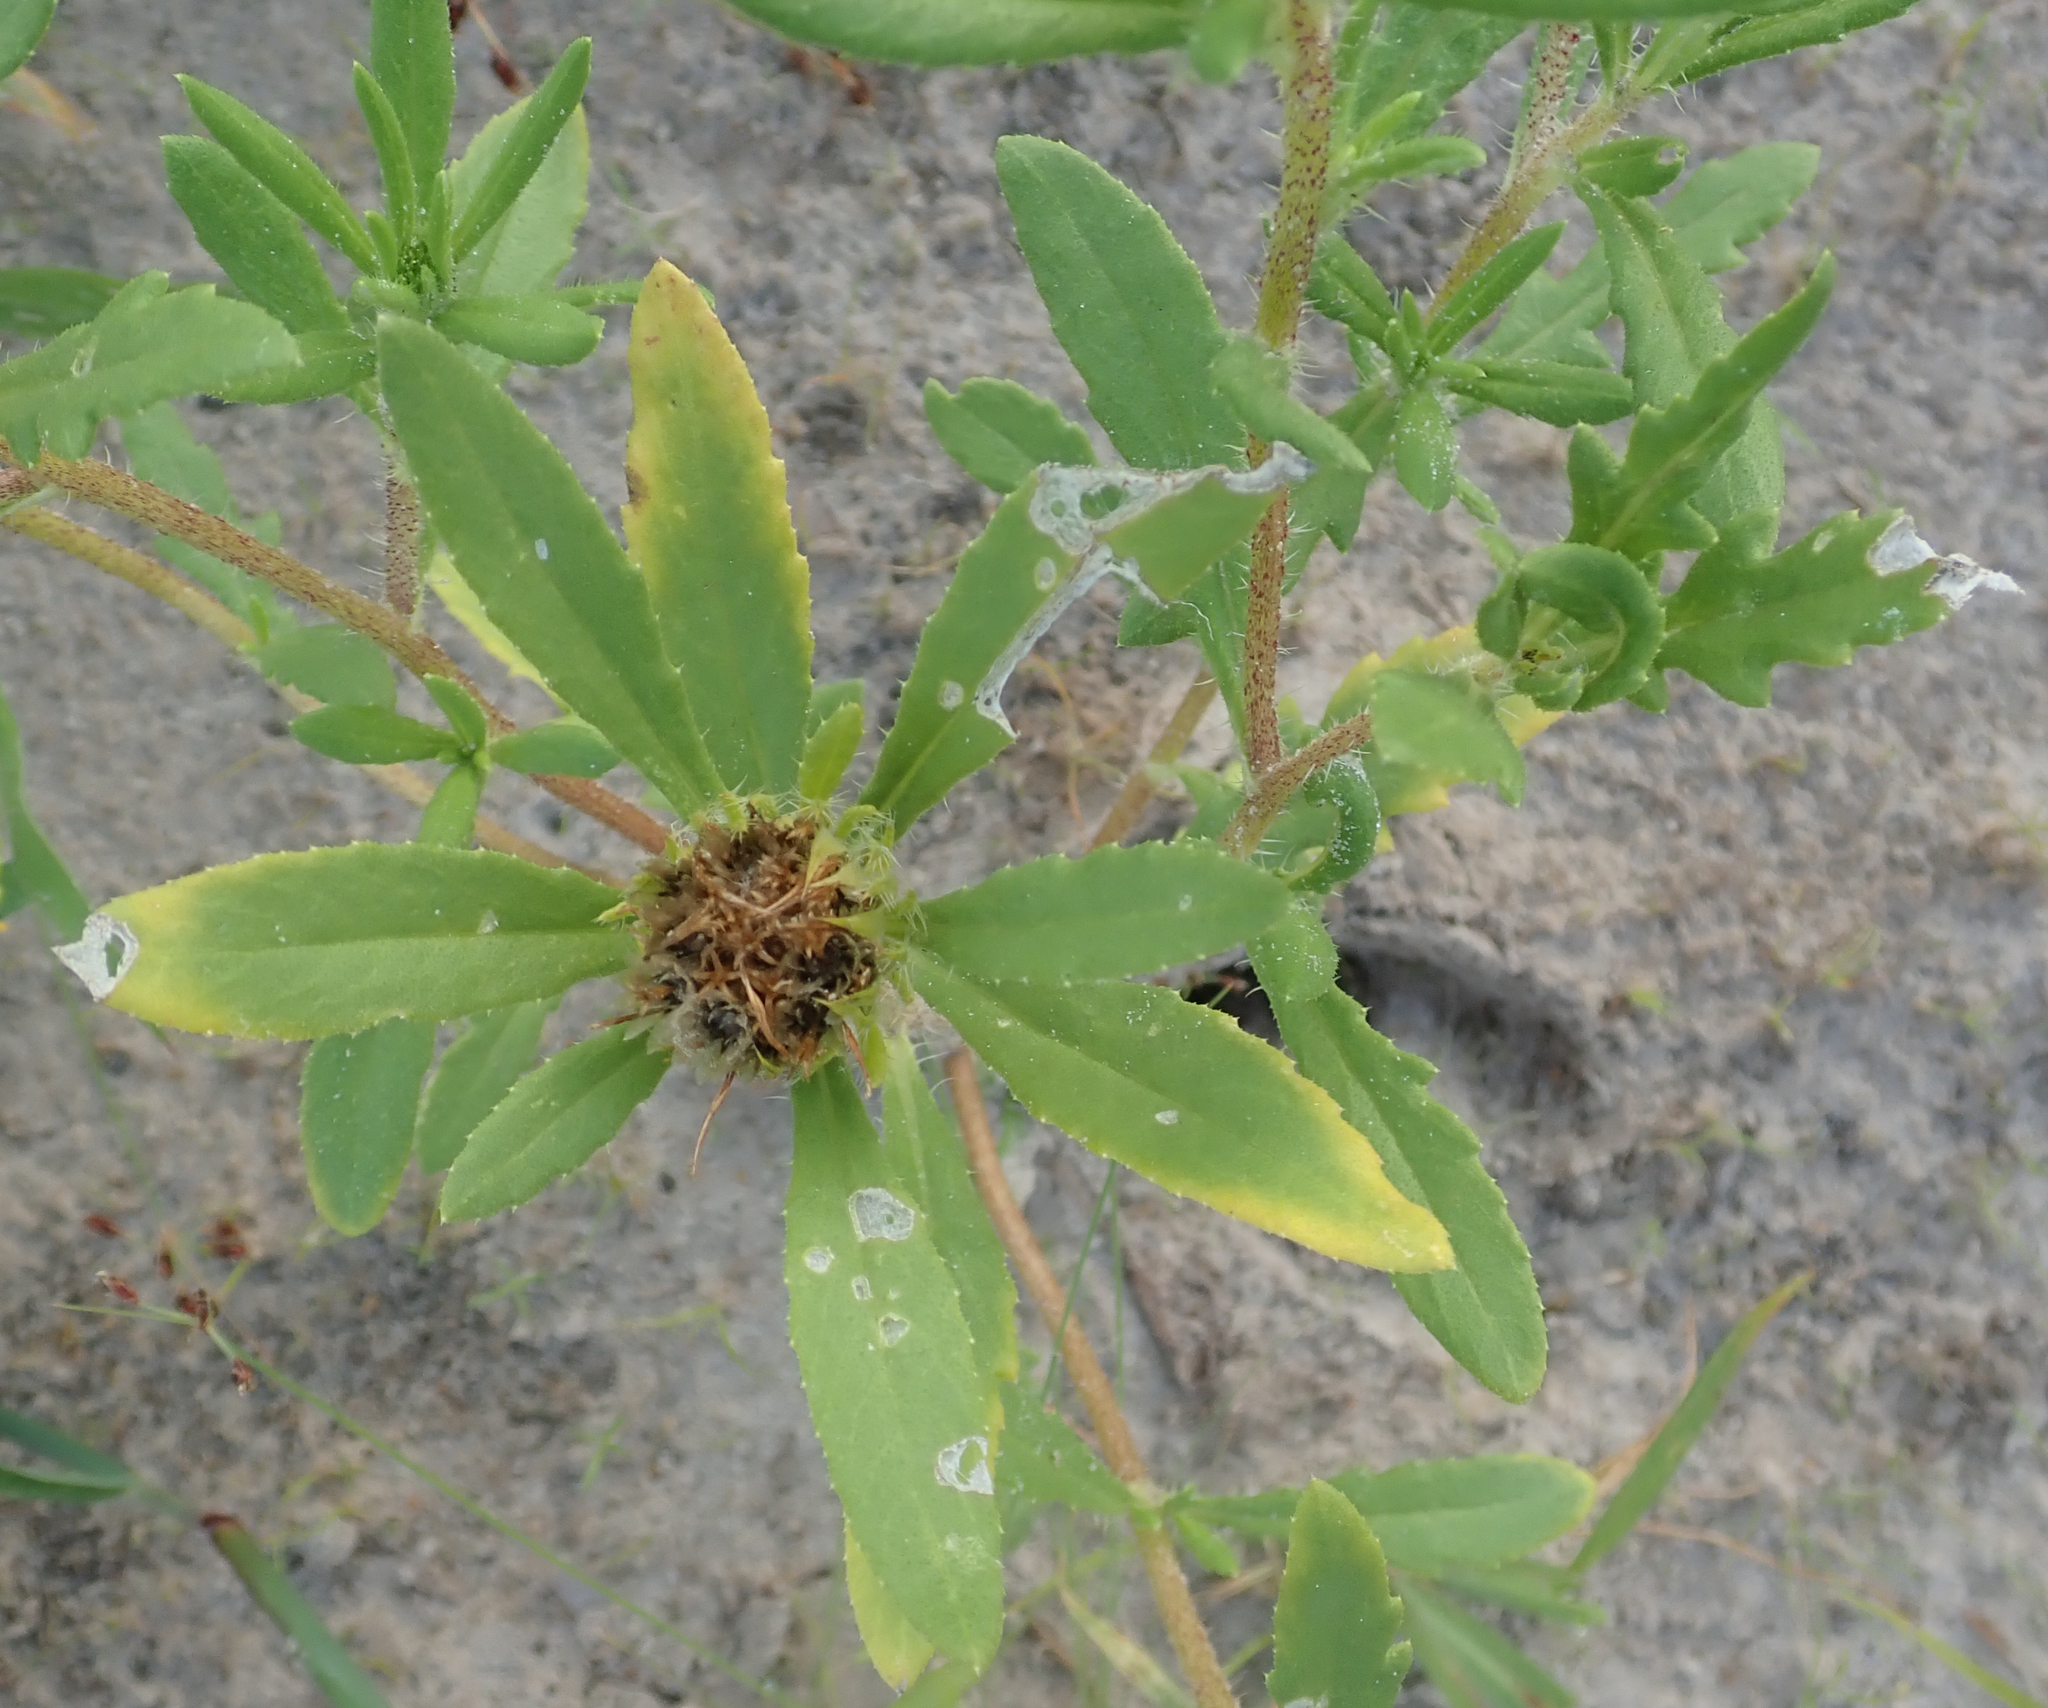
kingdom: Plantae
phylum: Tracheophyta
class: Magnoliopsida
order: Asterales
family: Asteraceae
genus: Roessleria
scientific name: Roessleria gorterioides
